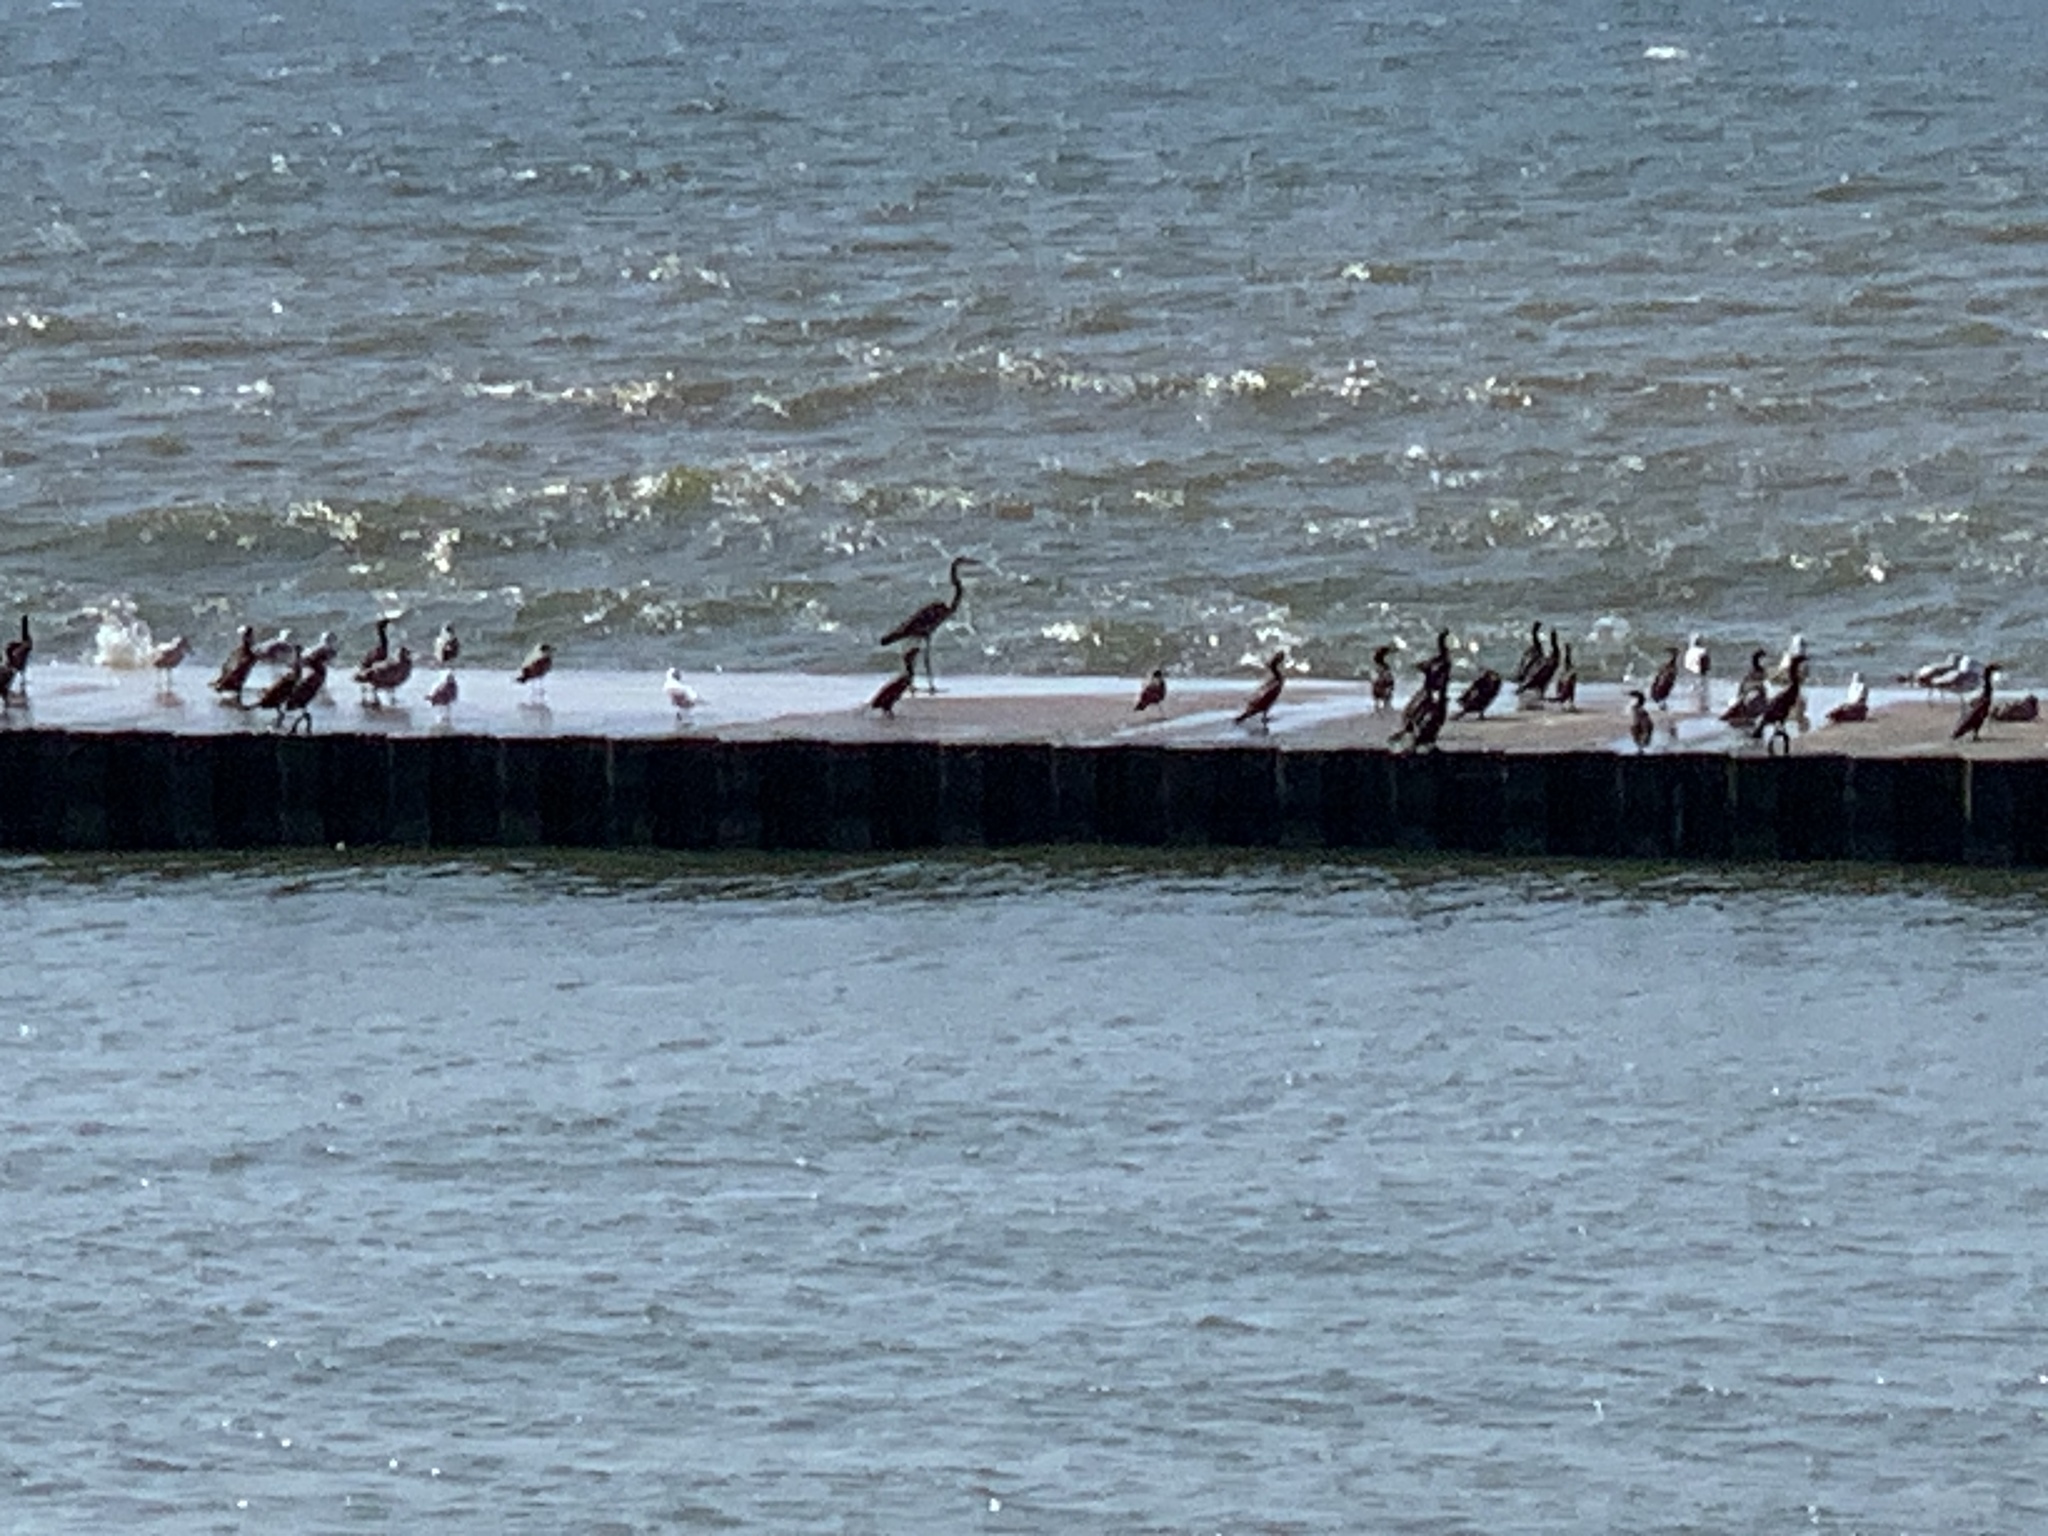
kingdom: Animalia
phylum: Chordata
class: Aves
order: Pelecaniformes
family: Ardeidae
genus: Ardea
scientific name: Ardea herodias
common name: Great blue heron
